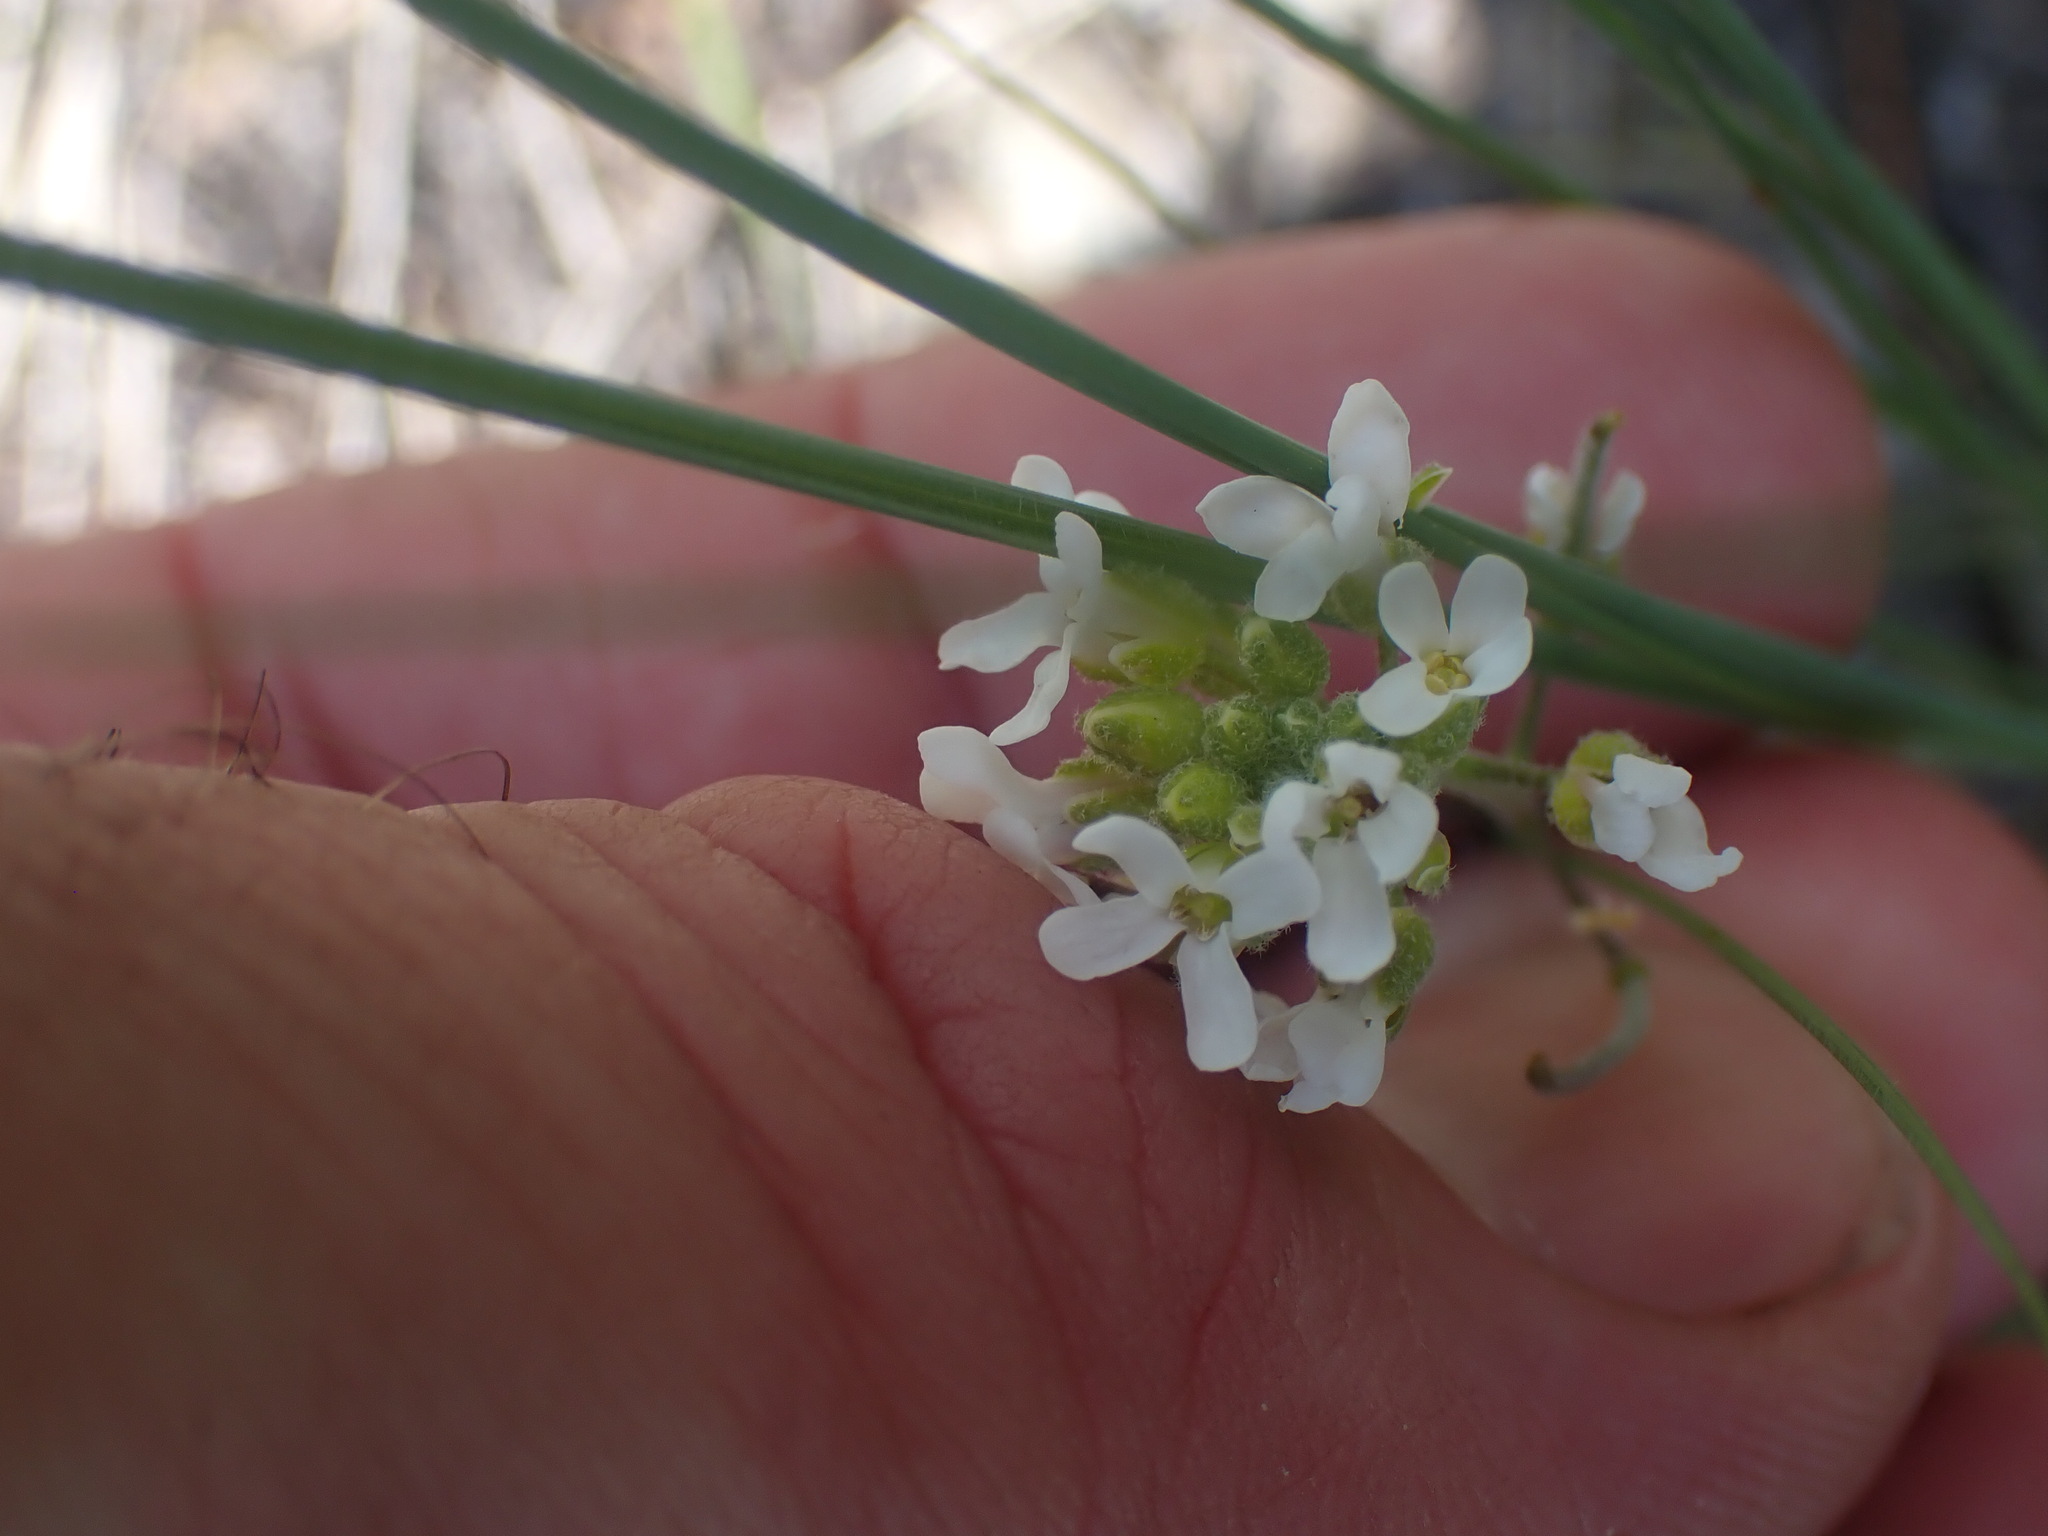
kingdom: Plantae
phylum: Tracheophyta
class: Magnoliopsida
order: Brassicales
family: Brassicaceae
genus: Sandbergia
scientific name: Sandbergia whitedii
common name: Whited's fissurewort
